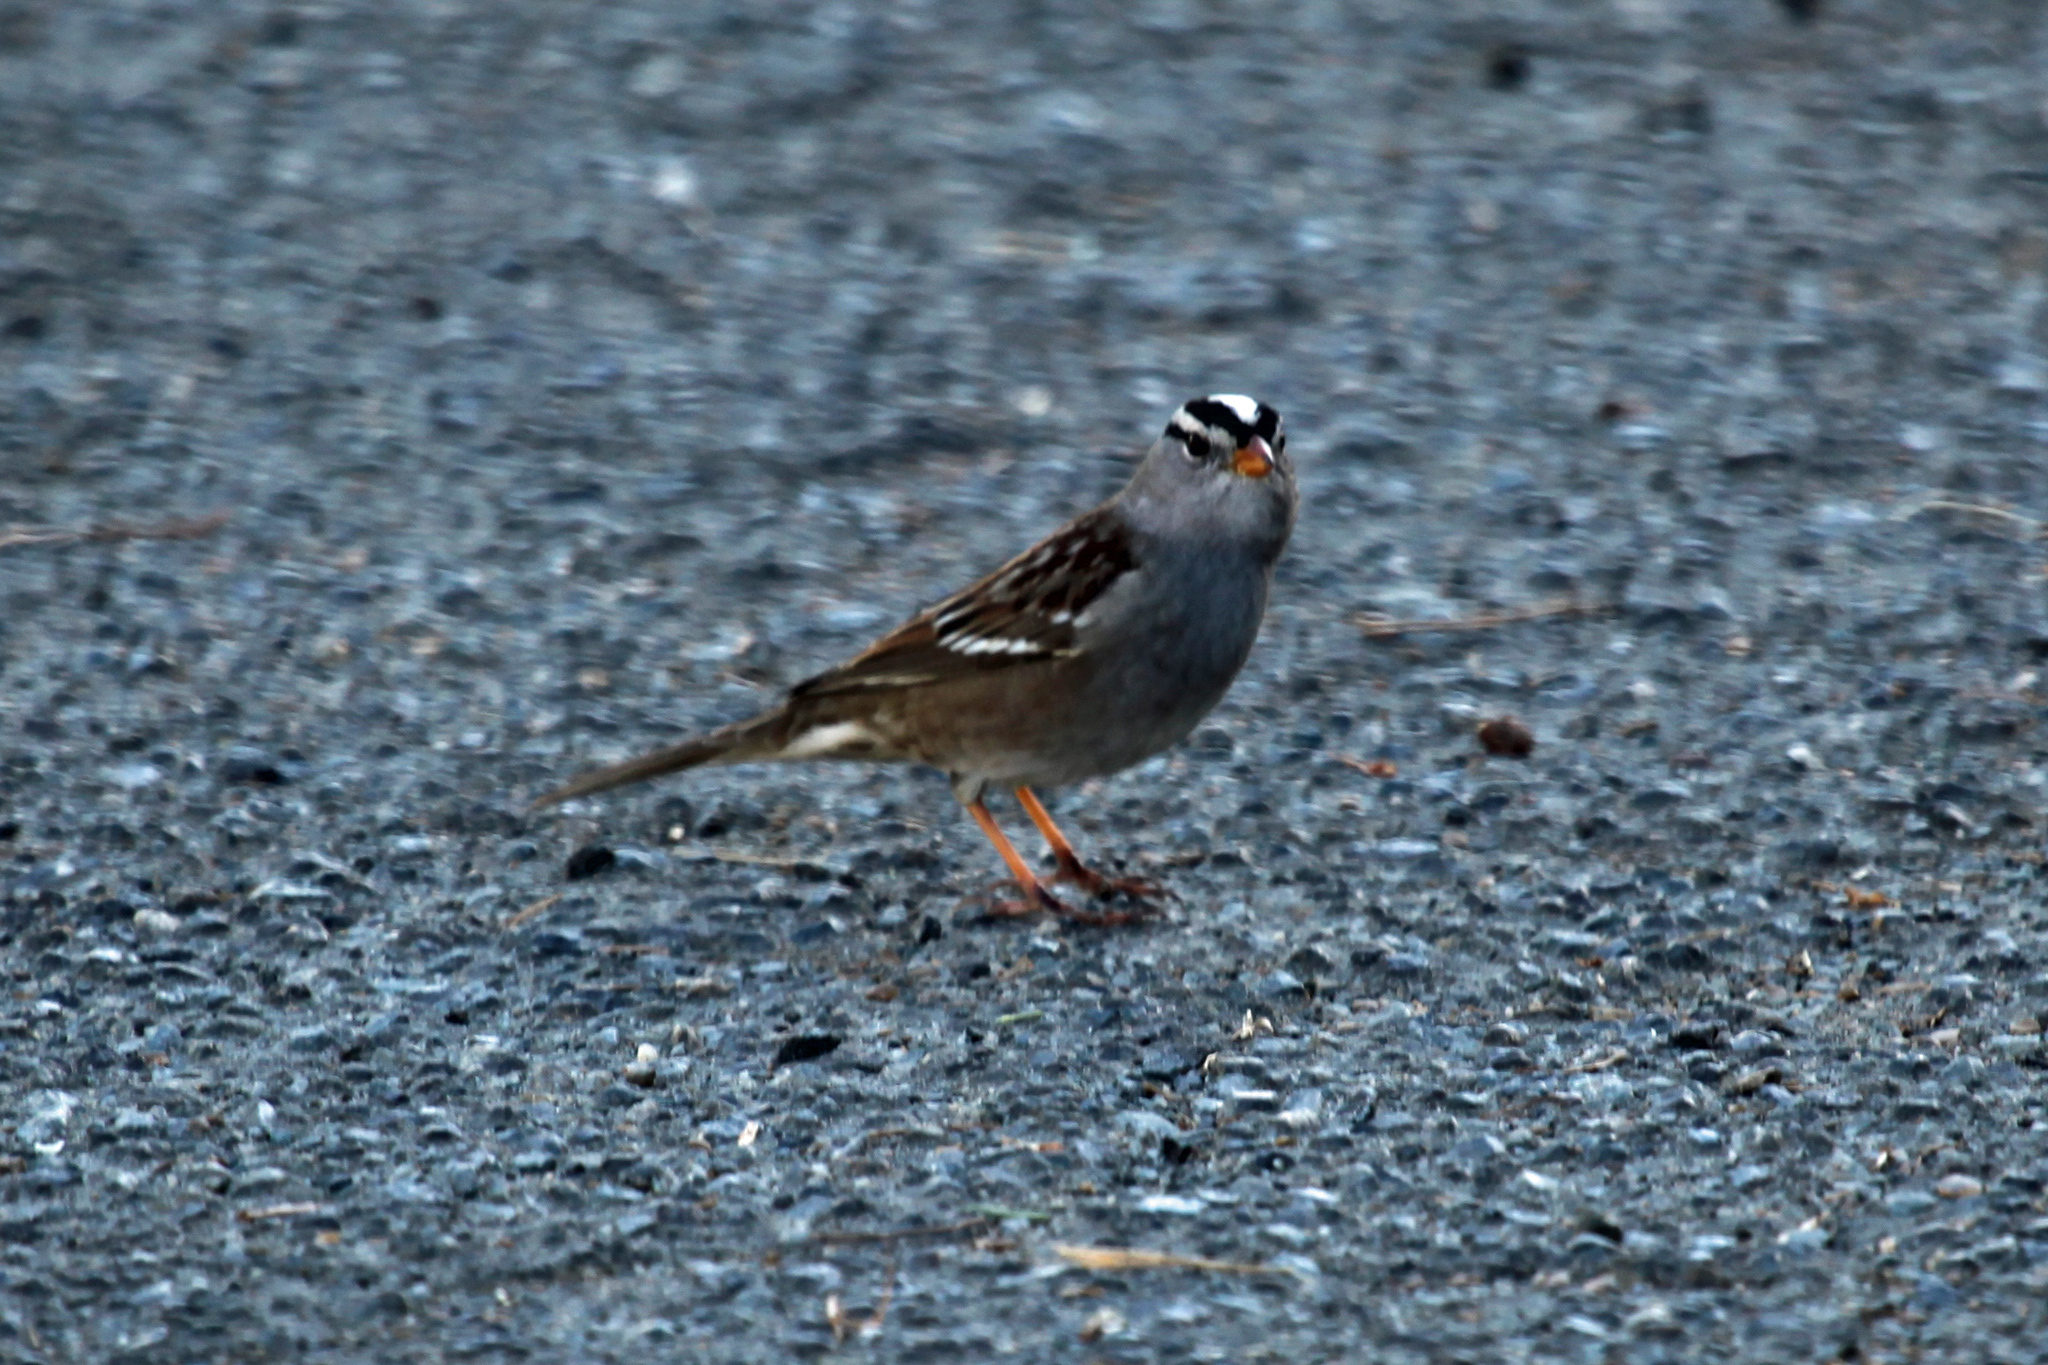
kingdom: Animalia
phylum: Chordata
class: Aves
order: Passeriformes
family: Passerellidae
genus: Zonotrichia
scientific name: Zonotrichia leucophrys
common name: White-crowned sparrow
